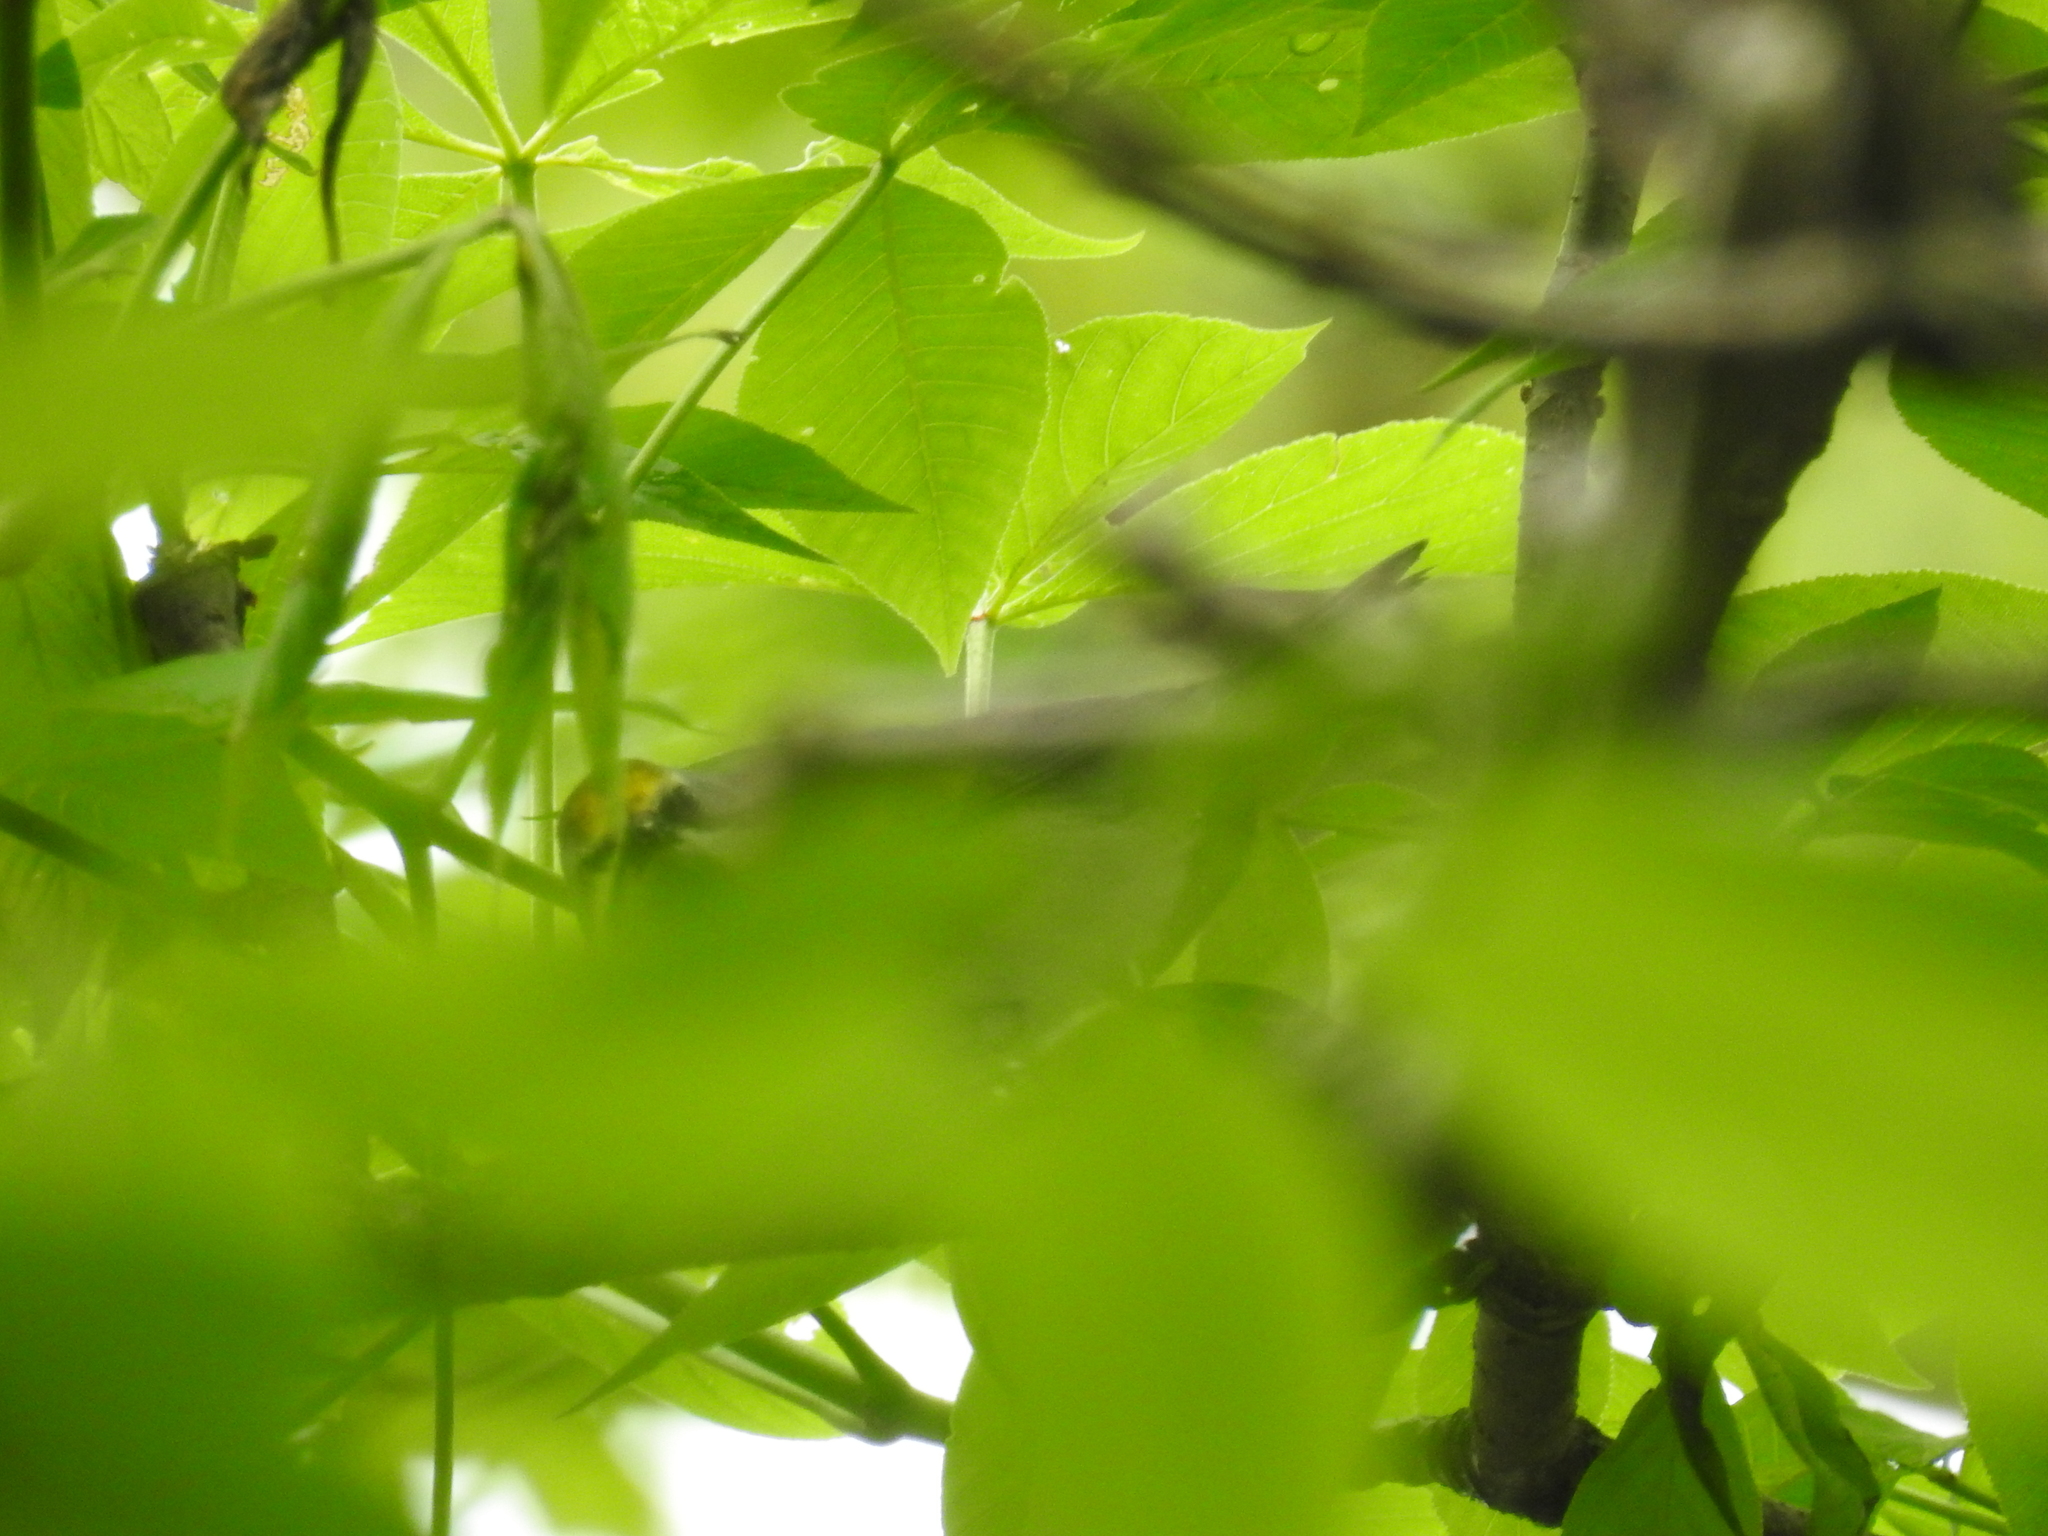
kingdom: Animalia
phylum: Chordata
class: Aves
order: Passeriformes
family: Parulidae
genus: Vermivora
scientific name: Vermivora chrysoptera
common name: Golden-winged warbler
